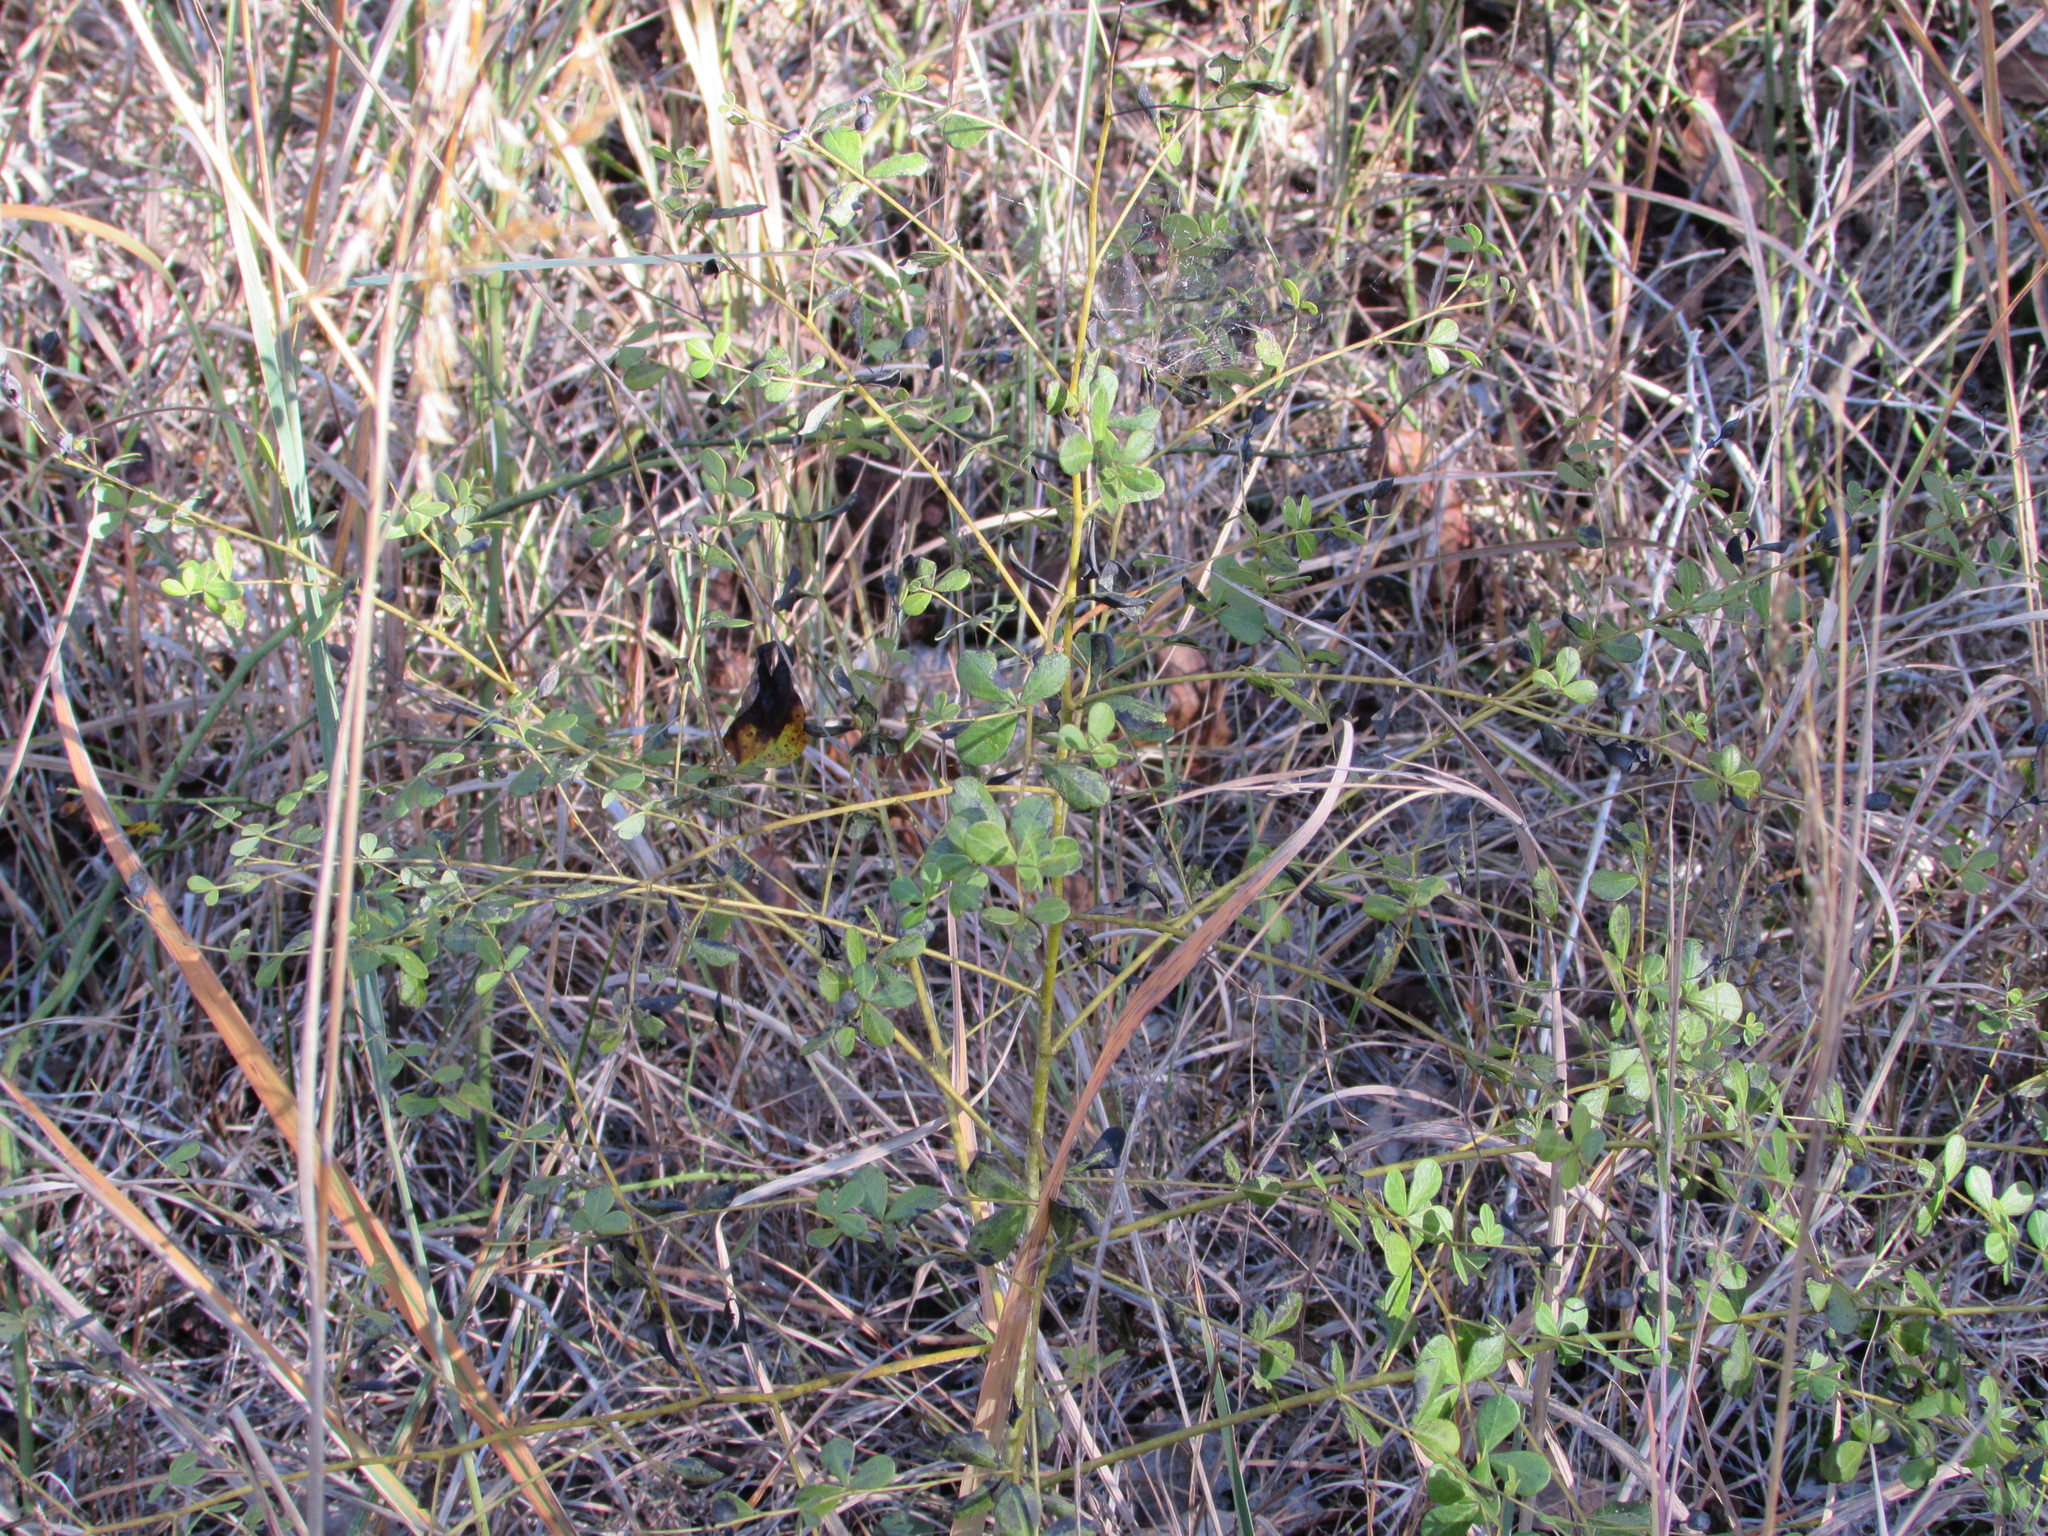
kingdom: Plantae
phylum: Tracheophyta
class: Magnoliopsida
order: Fabales
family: Fabaceae
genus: Baptisia
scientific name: Baptisia tinctoria
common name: Wild indigo
